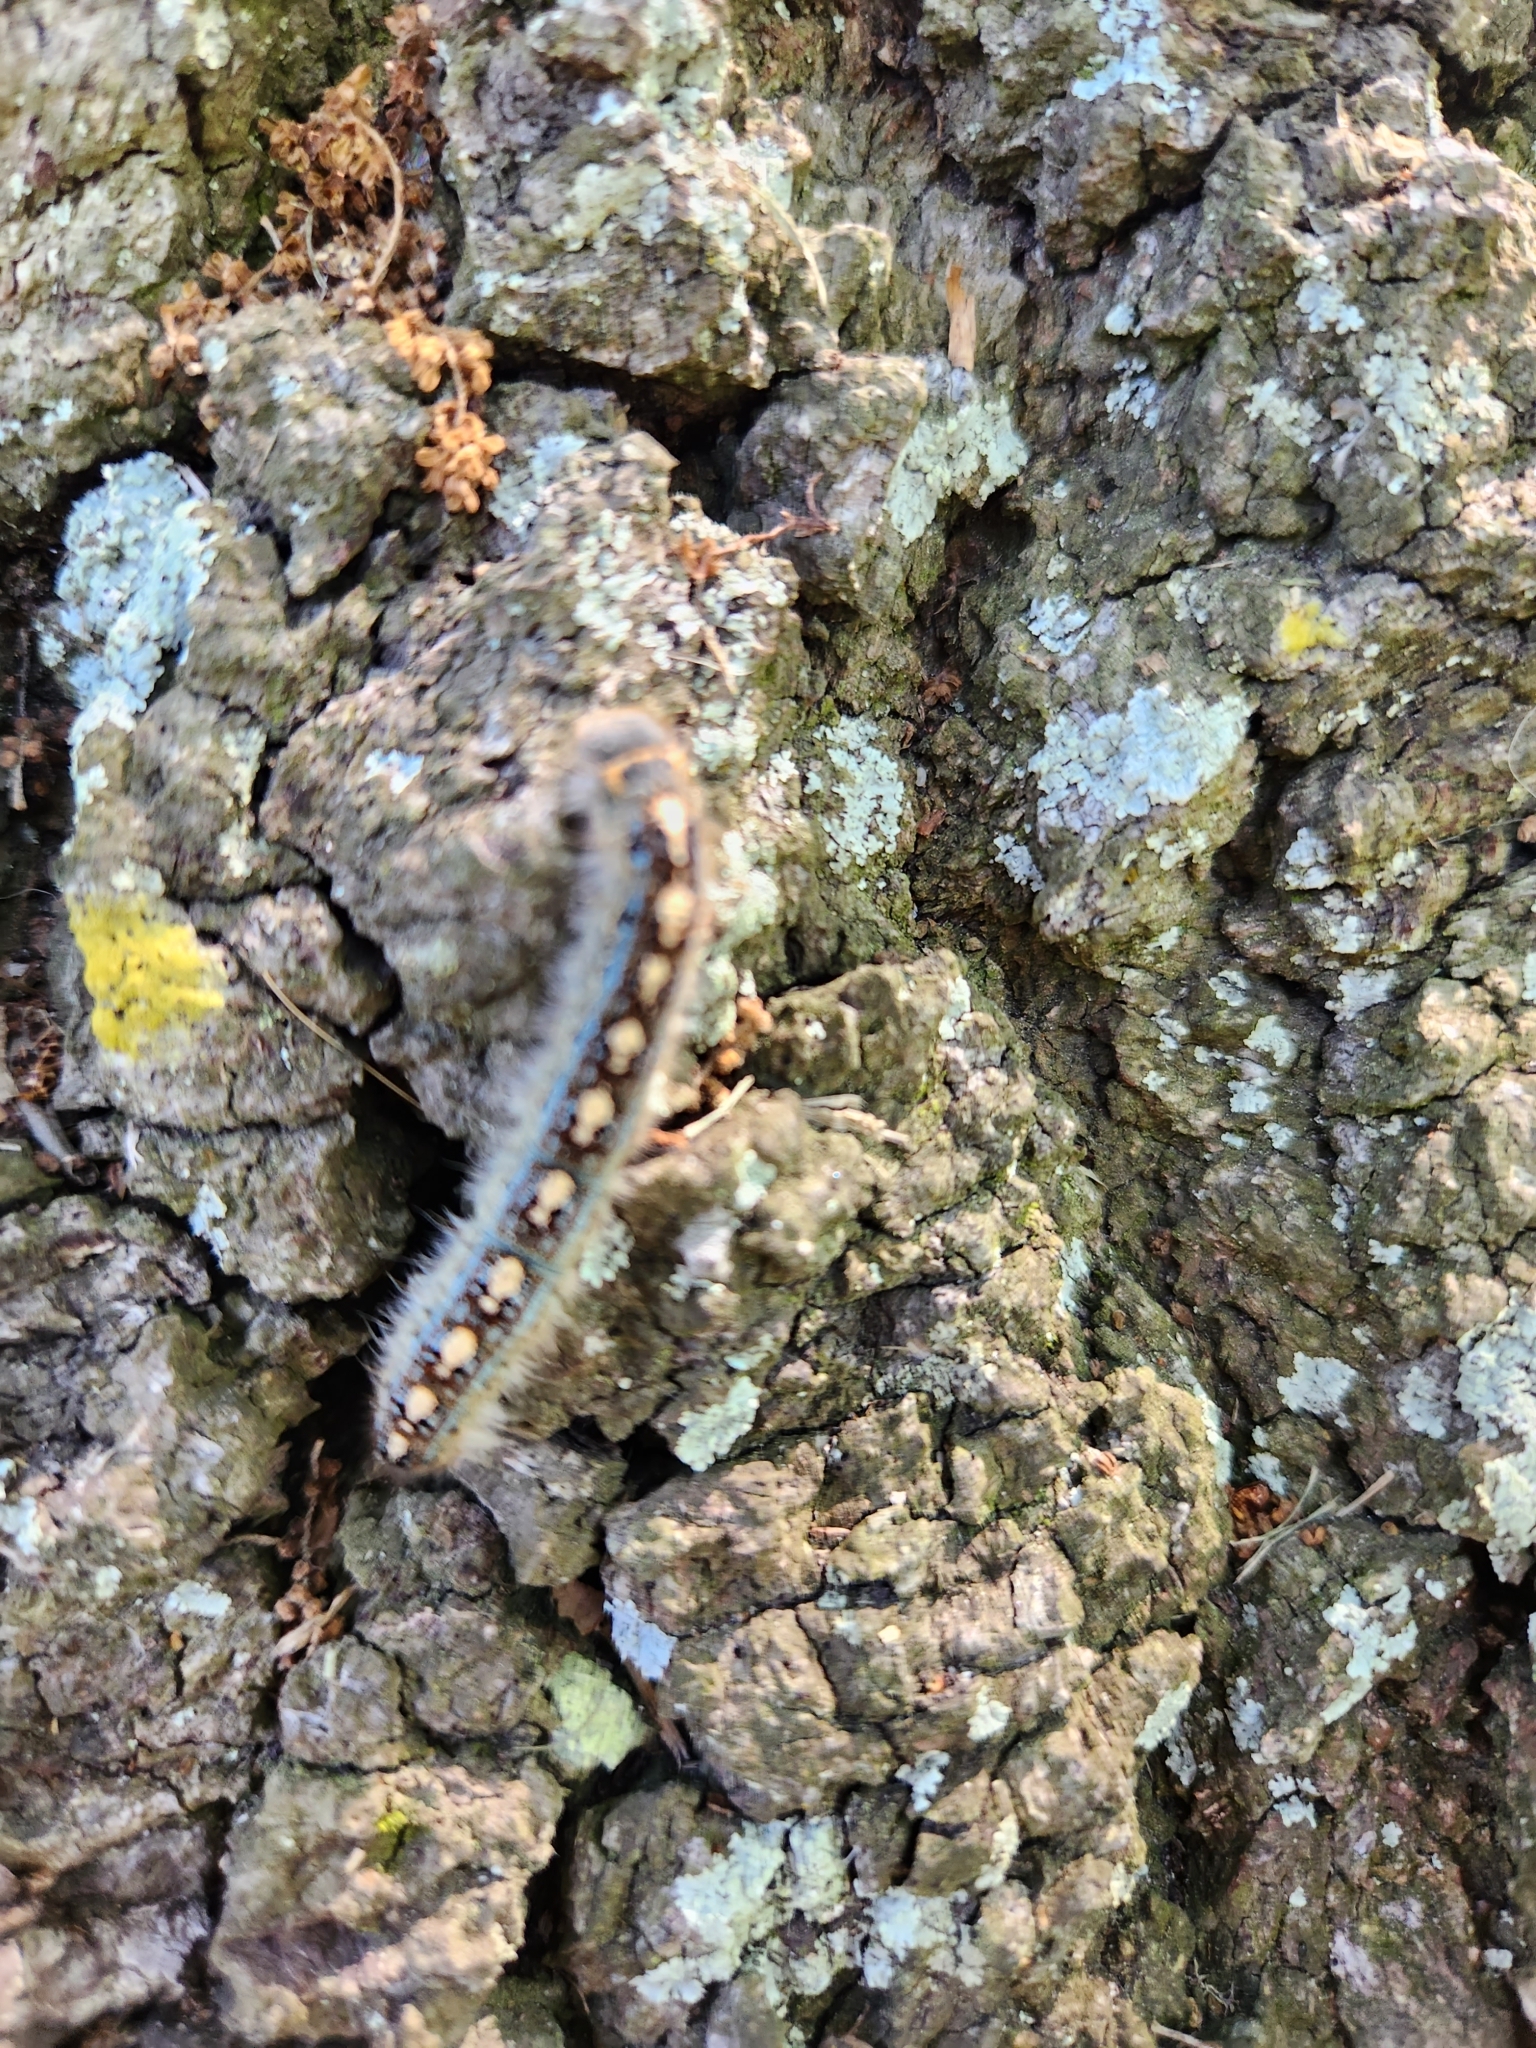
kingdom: Animalia
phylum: Arthropoda
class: Insecta
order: Lepidoptera
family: Lasiocampidae
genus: Malacosoma
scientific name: Malacosoma disstria
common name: Forest tent caterpillar
